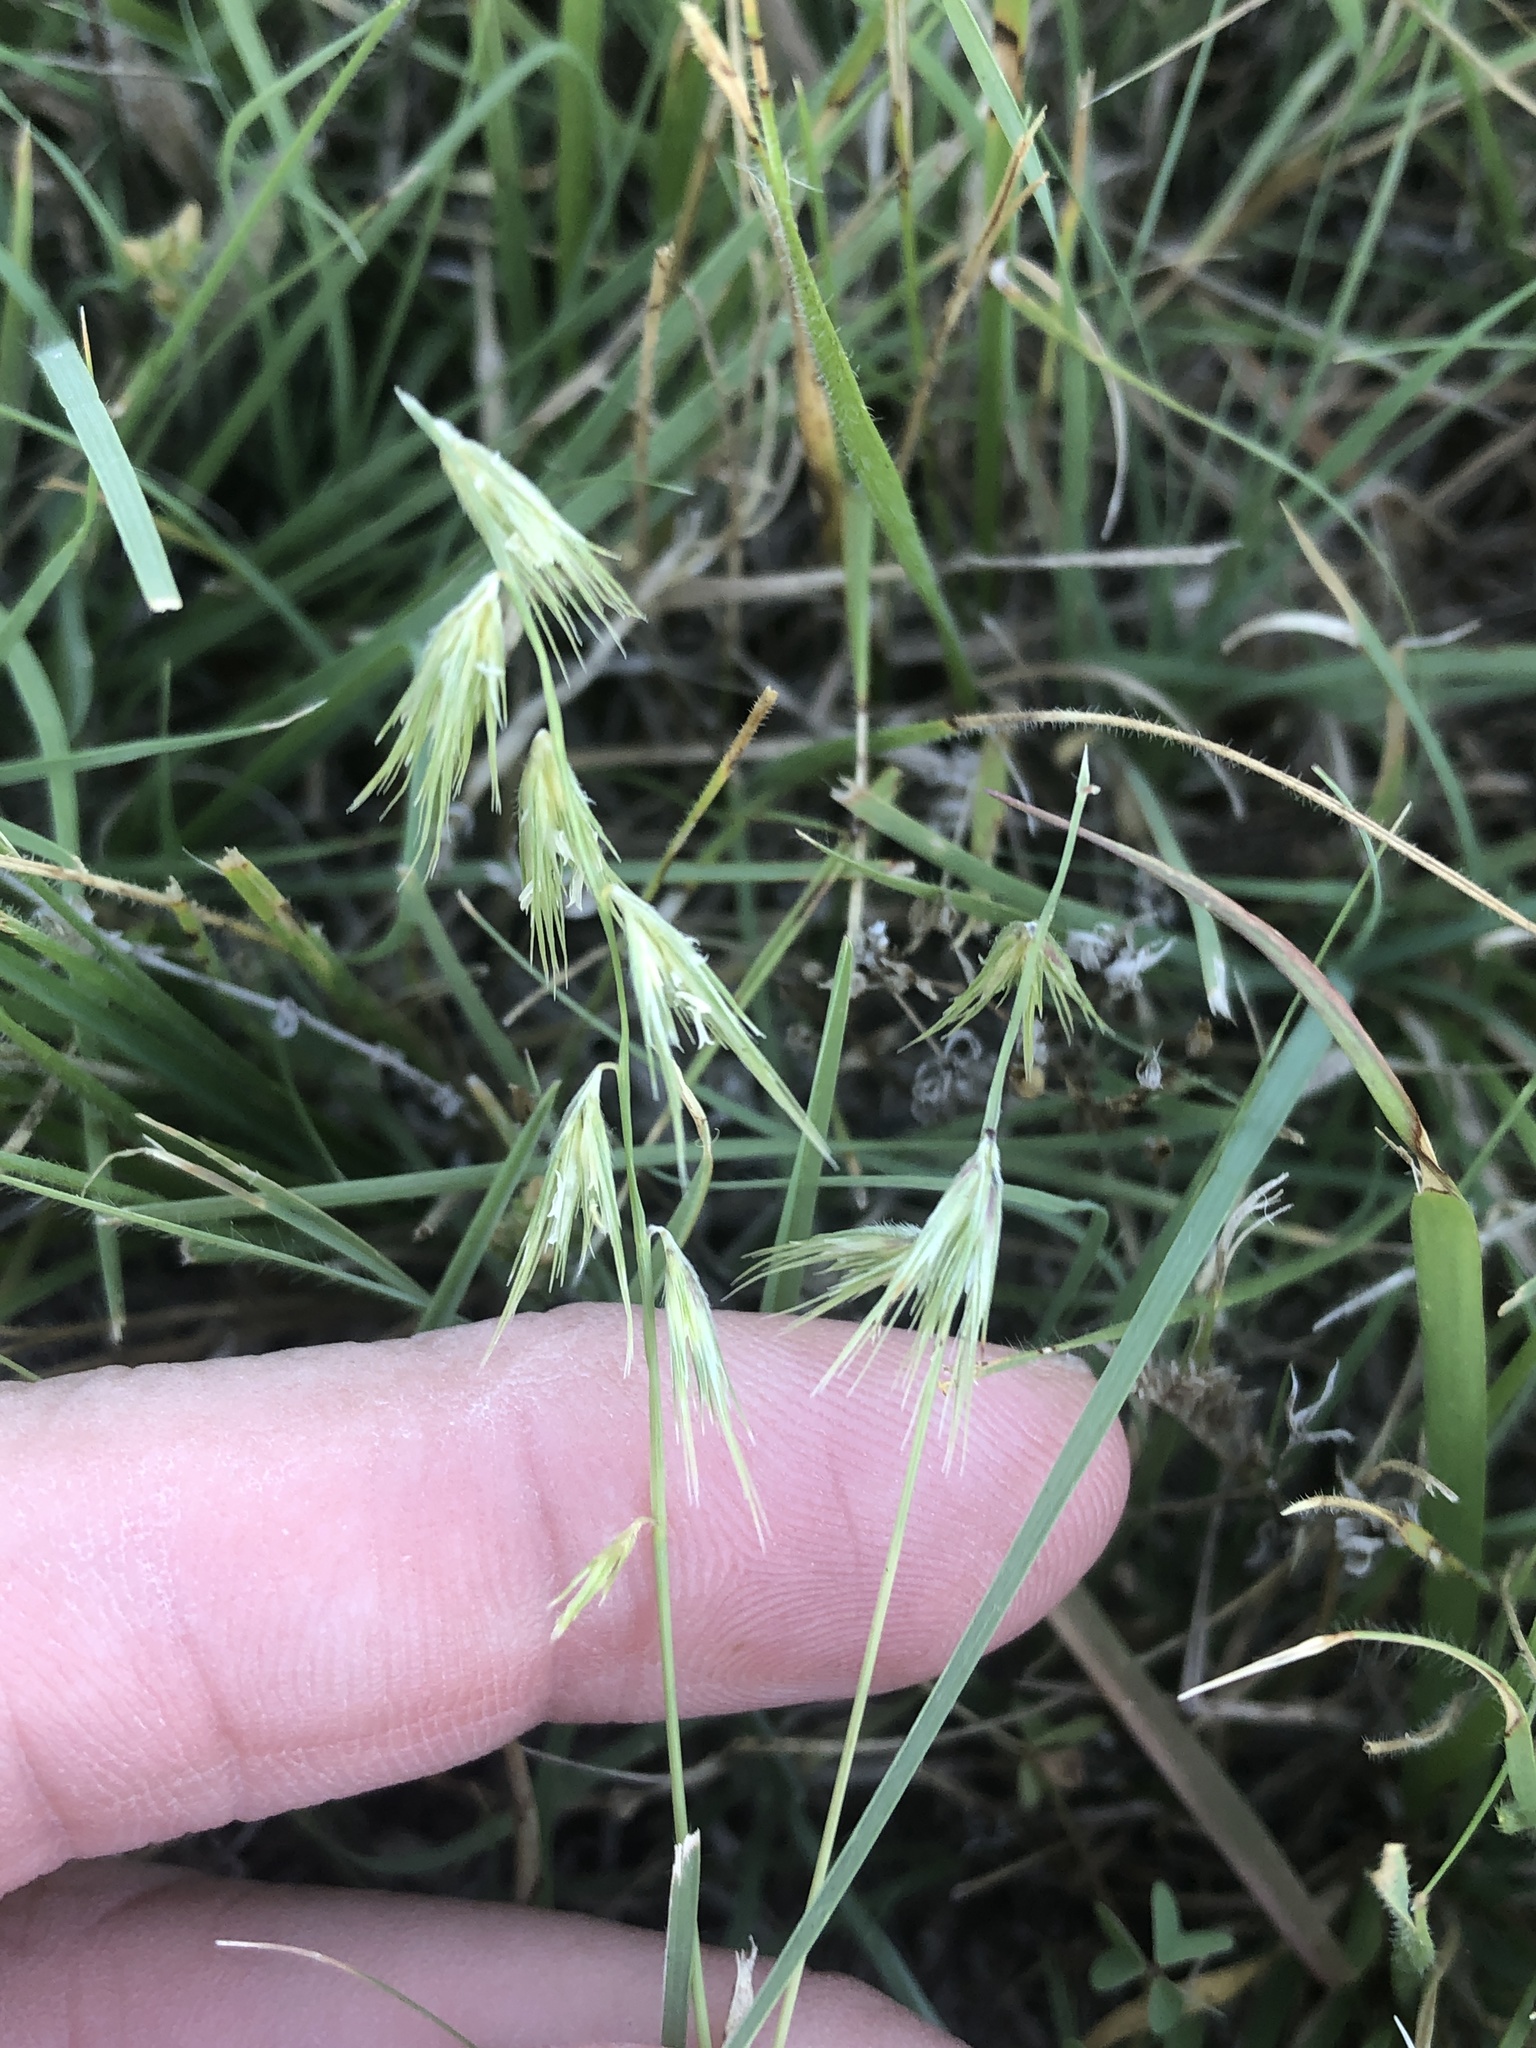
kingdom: Plantae
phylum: Tracheophyta
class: Liliopsida
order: Poales
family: Poaceae
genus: Bouteloua
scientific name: Bouteloua rigidiseta
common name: Texas grama
